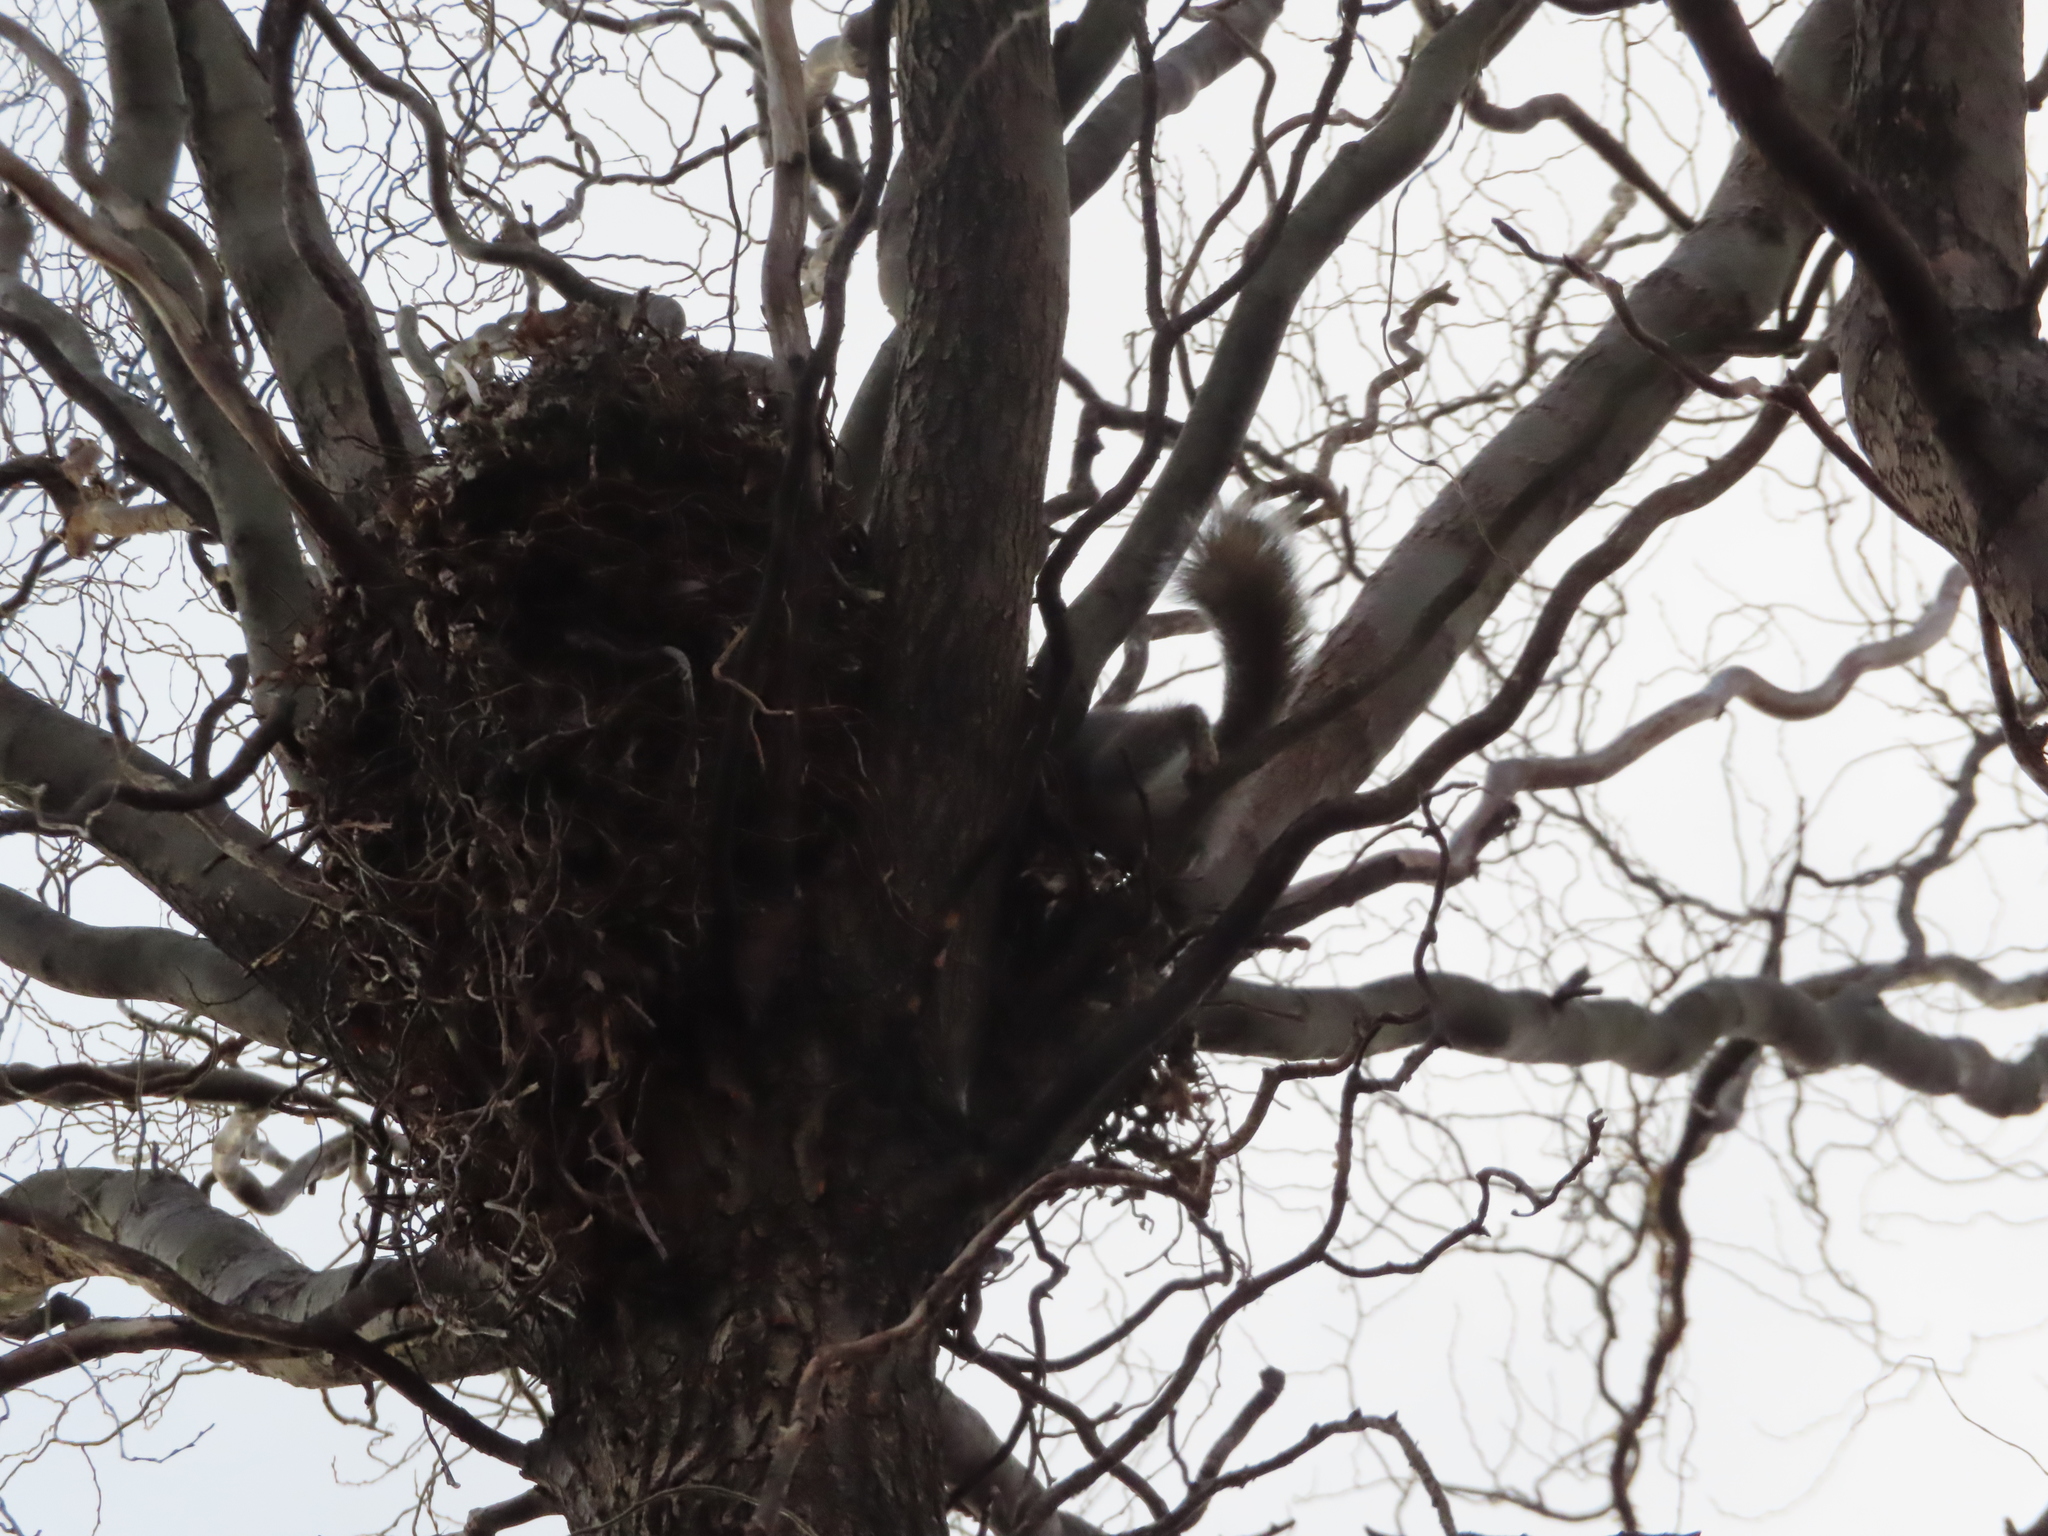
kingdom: Animalia
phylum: Chordata
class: Mammalia
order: Rodentia
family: Sciuridae
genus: Sciurus
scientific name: Sciurus carolinensis
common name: Eastern gray squirrel
